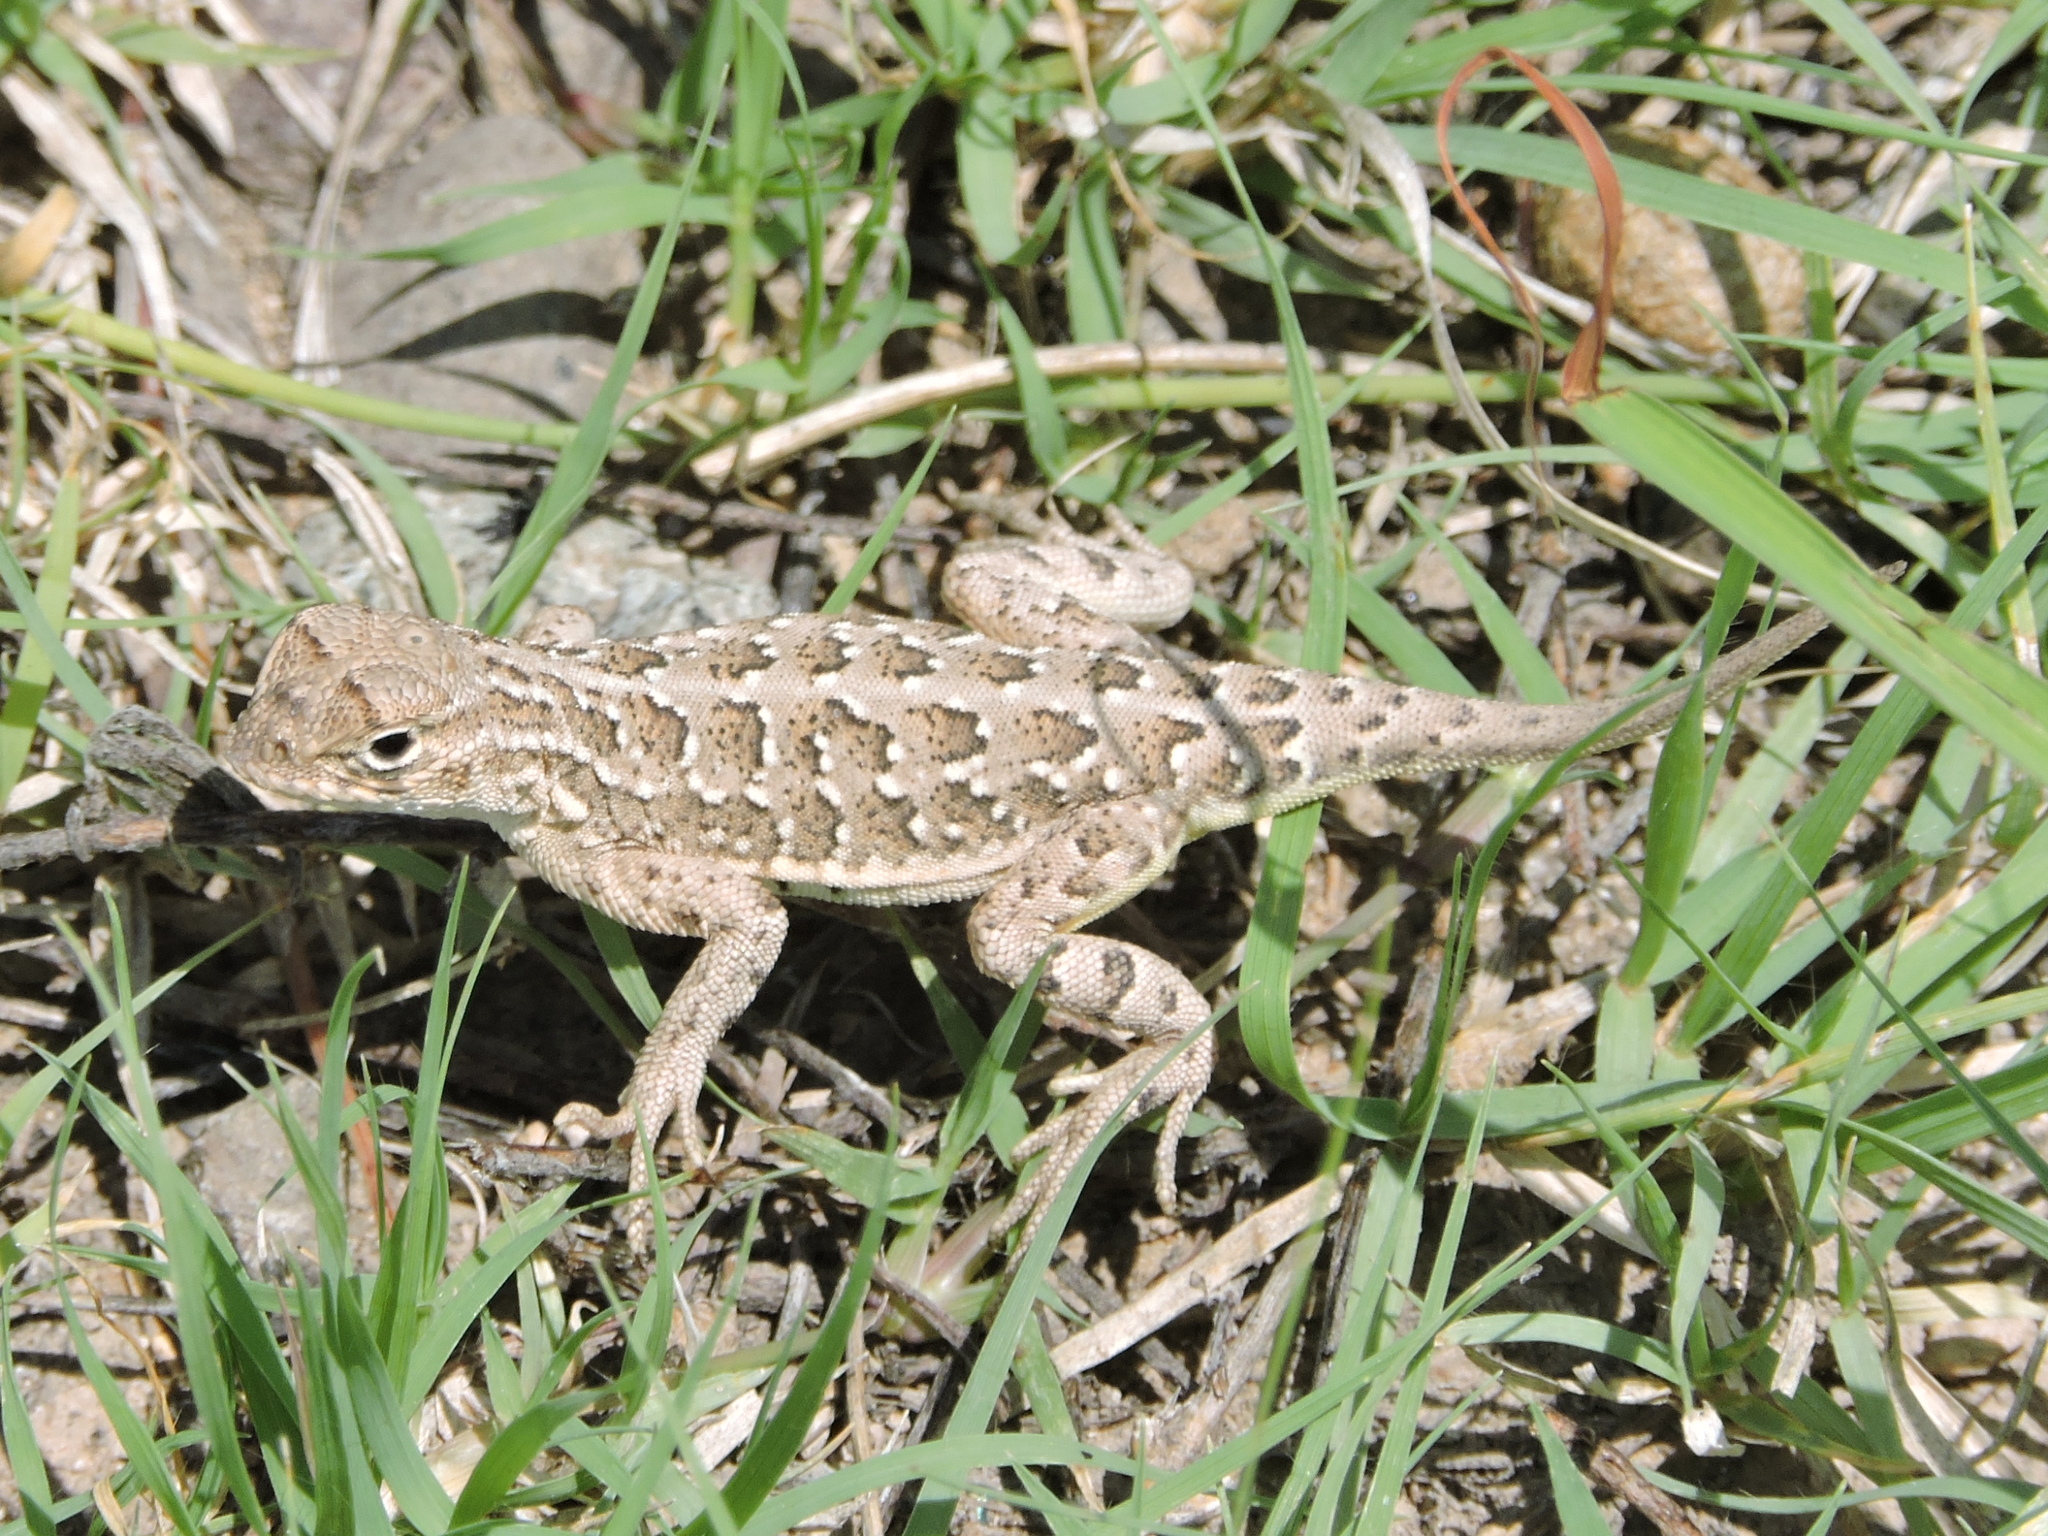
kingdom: Animalia
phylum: Chordata
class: Squamata
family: Phrynosomatidae
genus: Holbrookia
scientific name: Holbrookia maculata
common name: Lesser earless lizard
